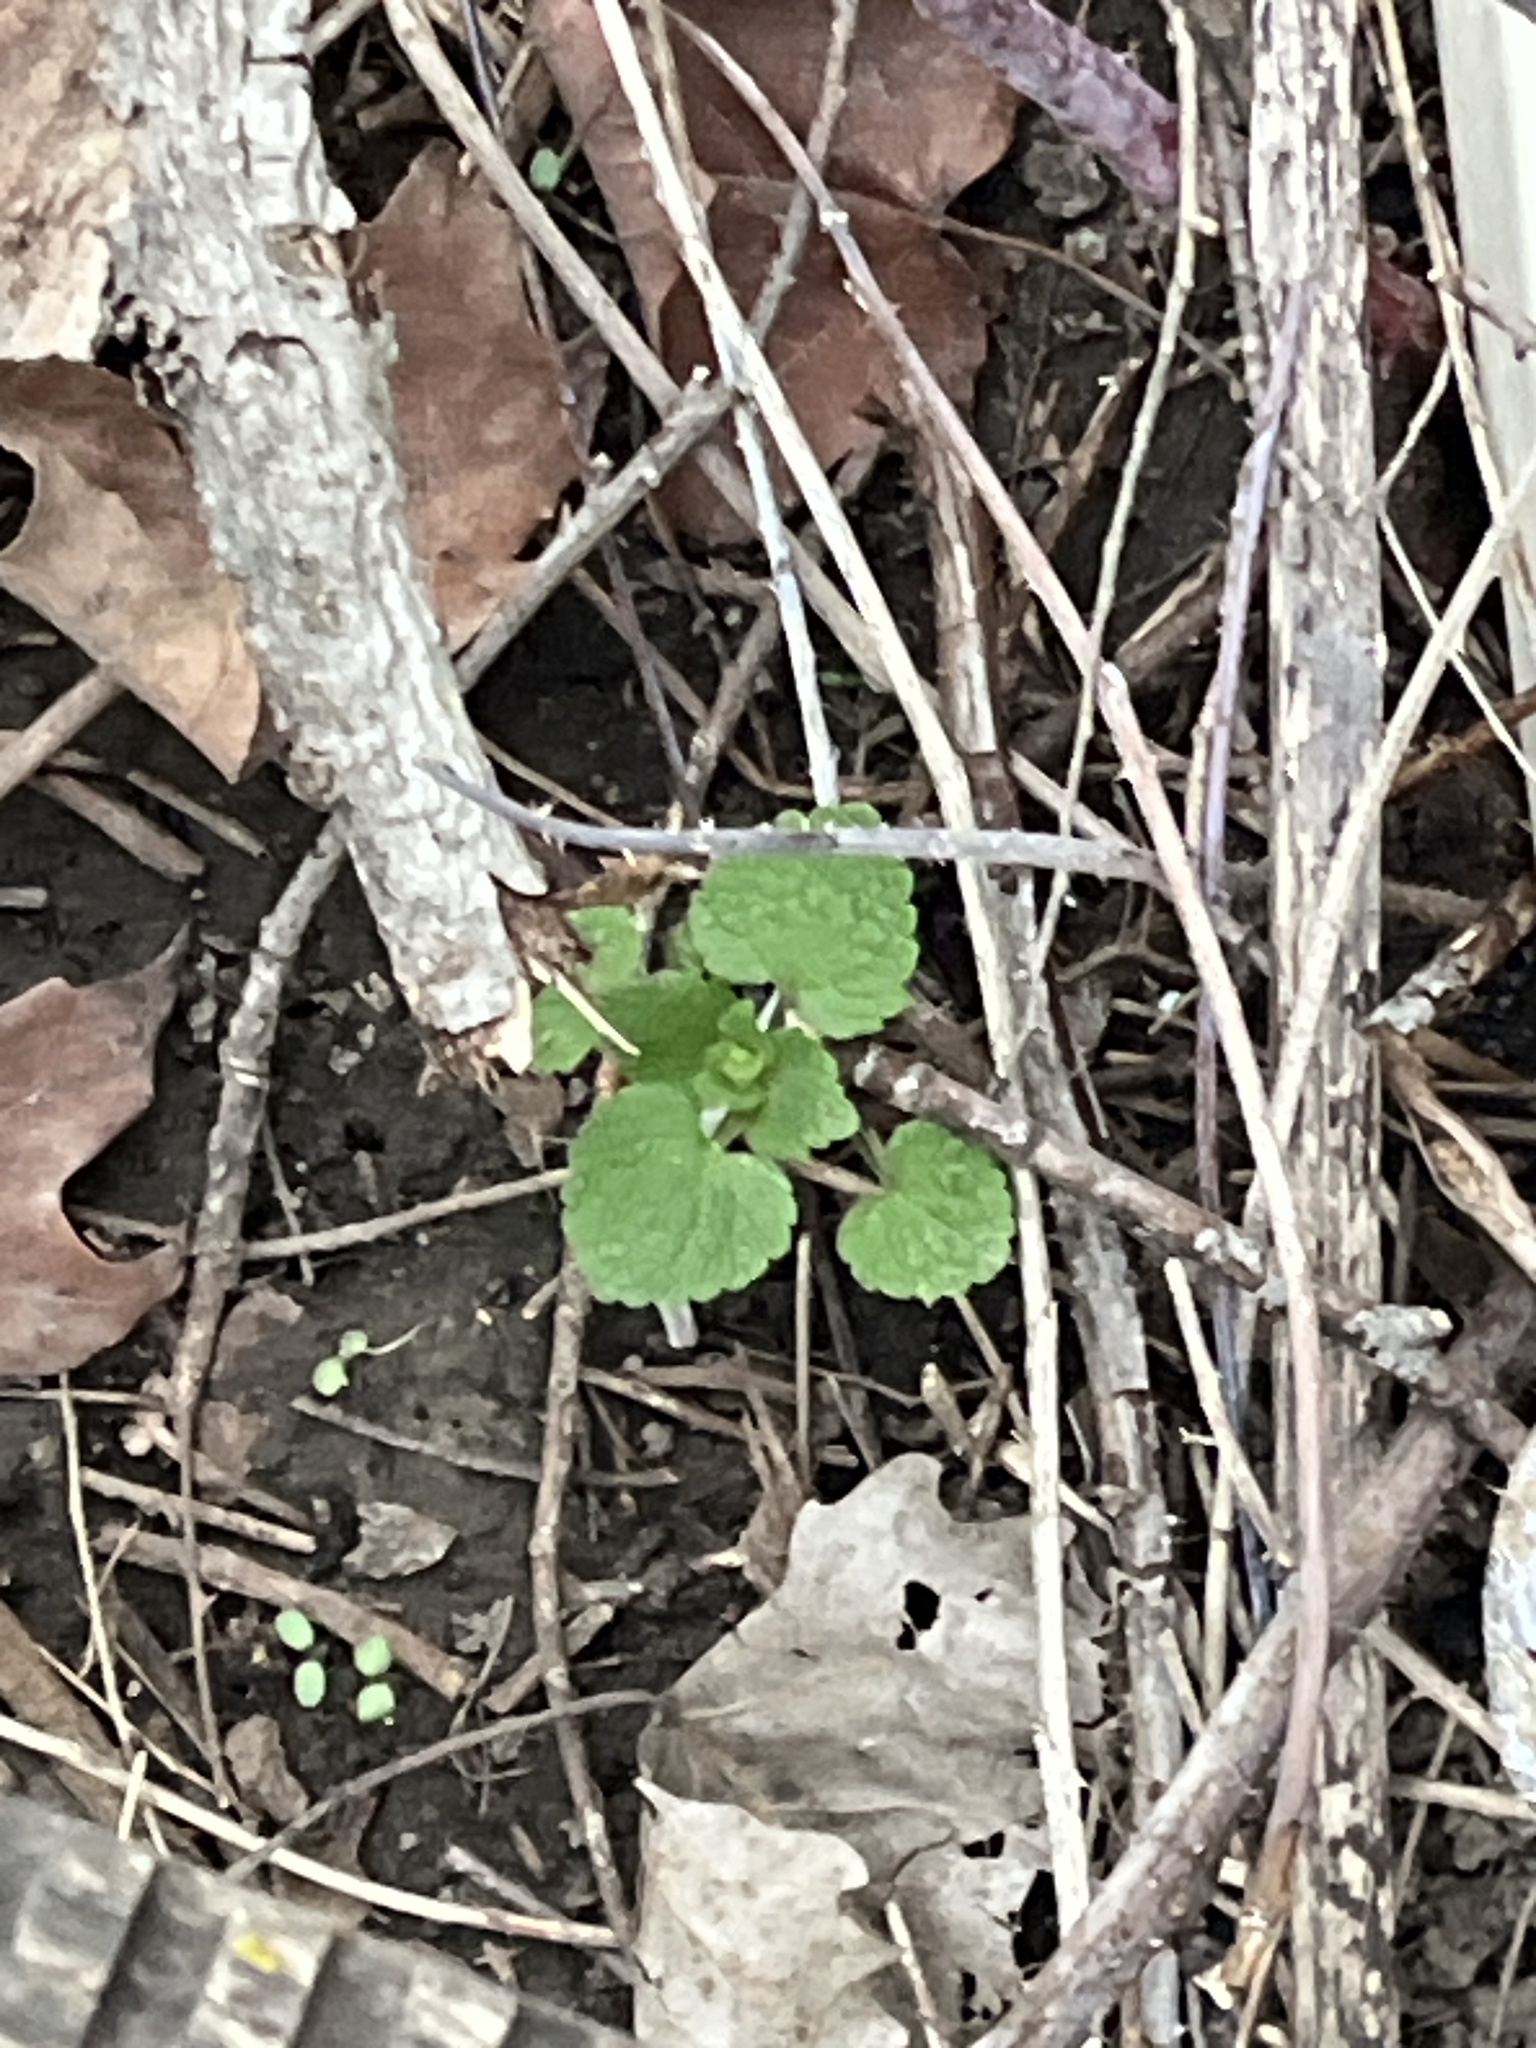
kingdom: Plantae
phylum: Tracheophyta
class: Magnoliopsida
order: Lamiales
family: Lamiaceae
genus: Lamium
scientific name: Lamium purpureum
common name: Red dead-nettle
